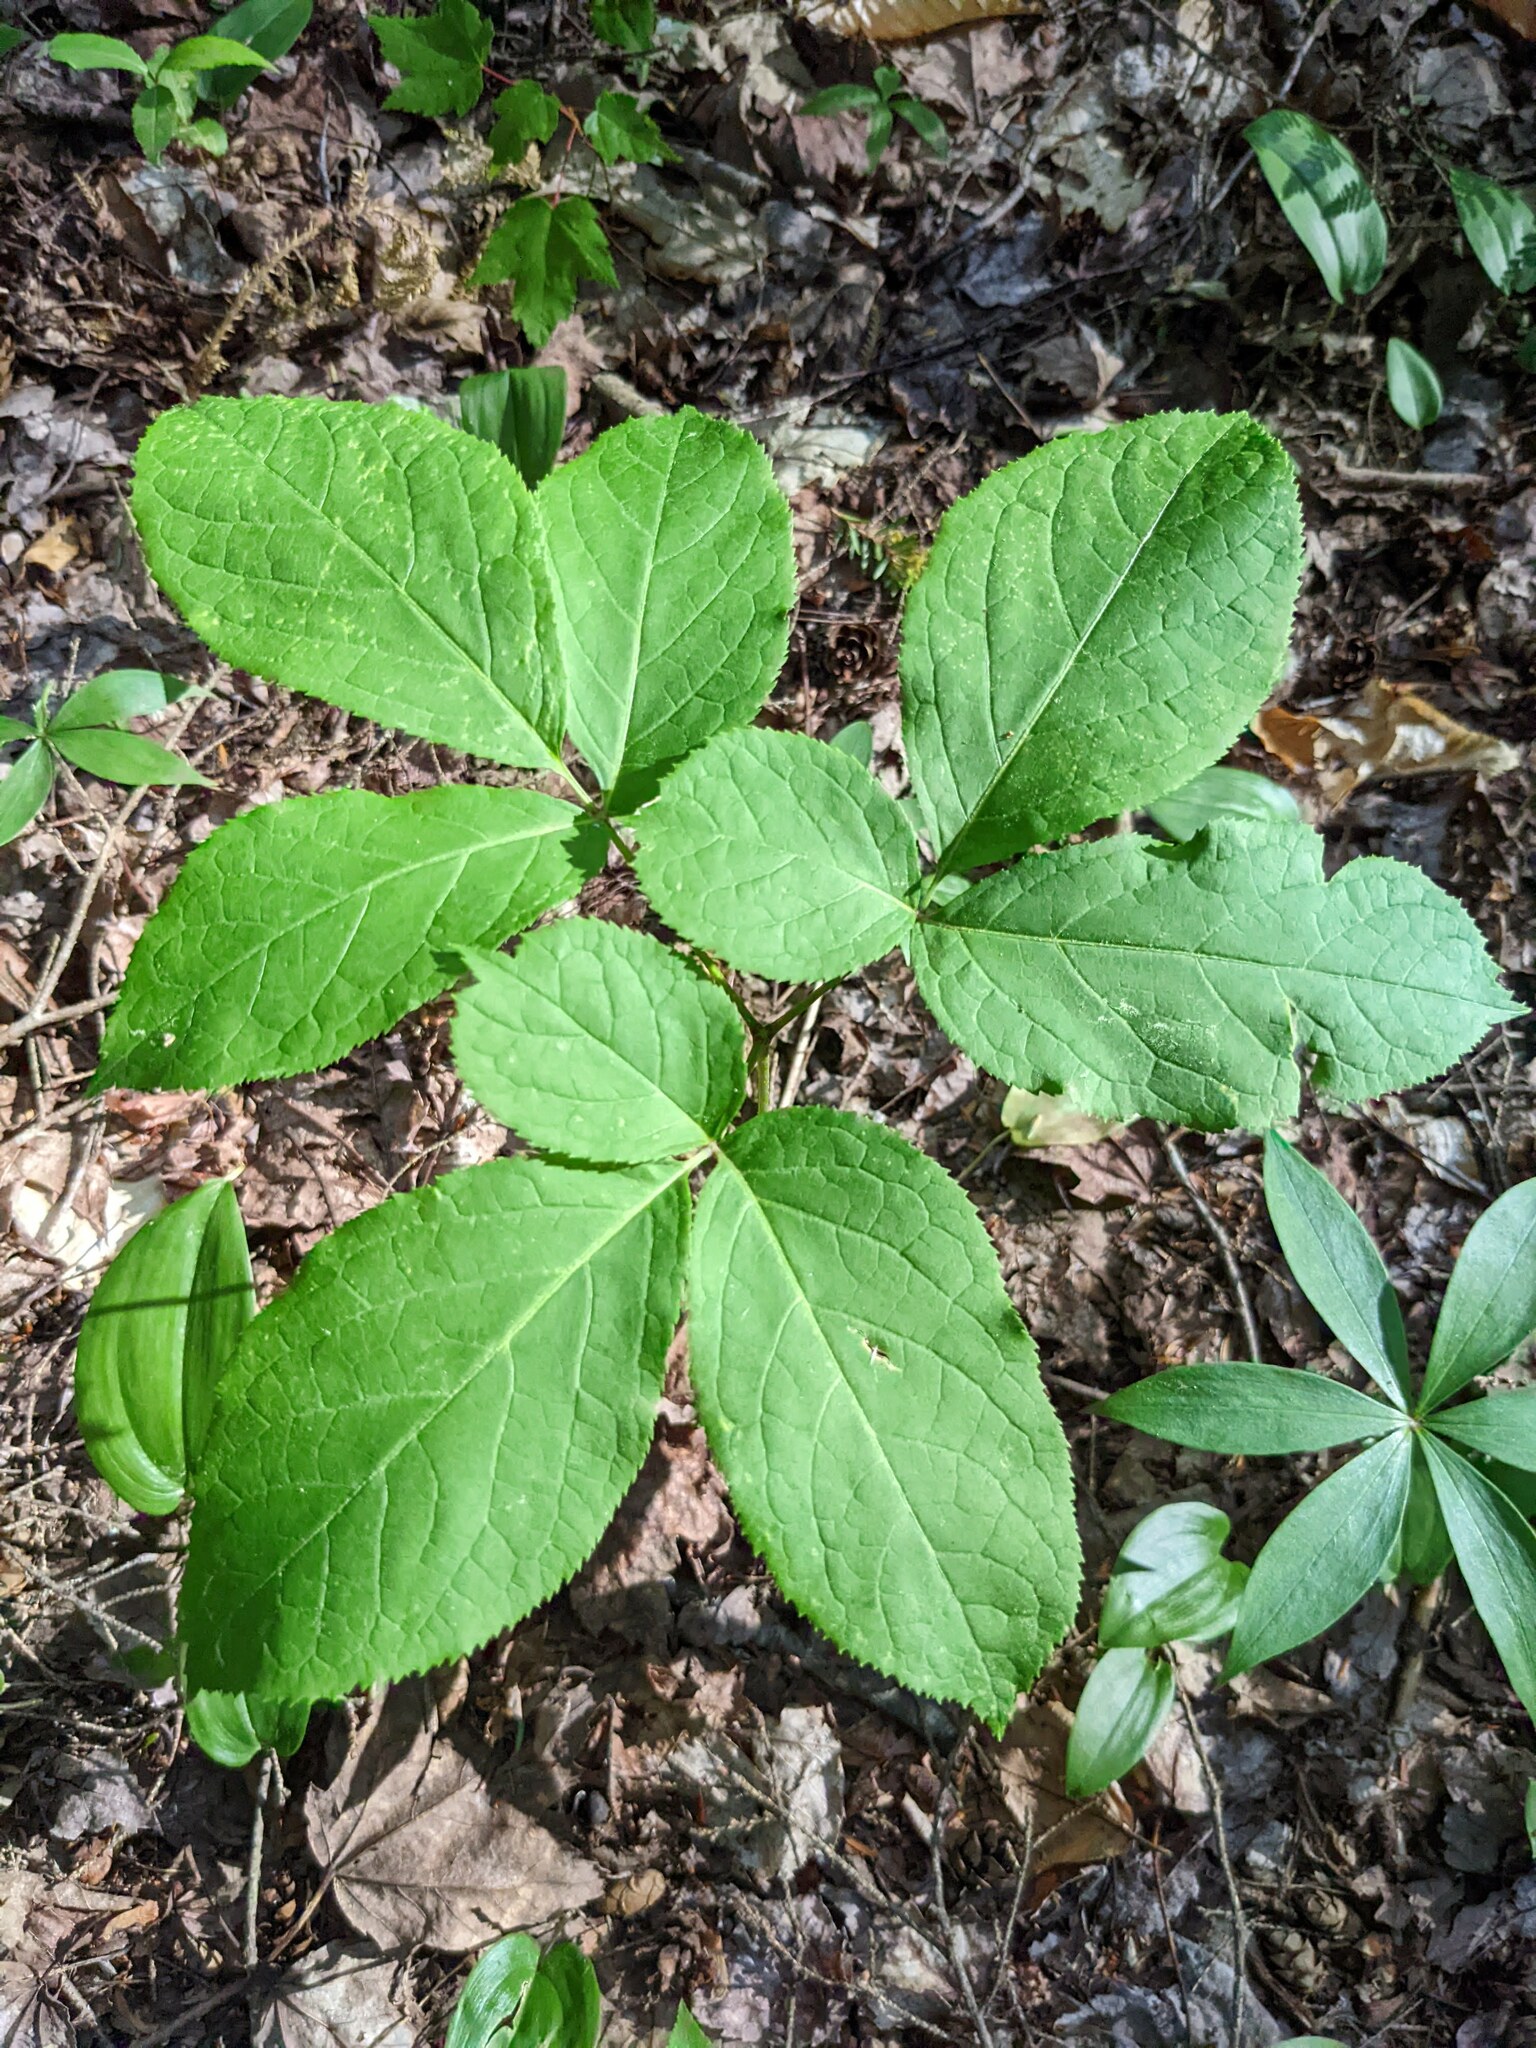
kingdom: Plantae
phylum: Tracheophyta
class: Magnoliopsida
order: Apiales
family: Araliaceae
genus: Aralia
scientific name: Aralia nudicaulis
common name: Wild sarsaparilla
